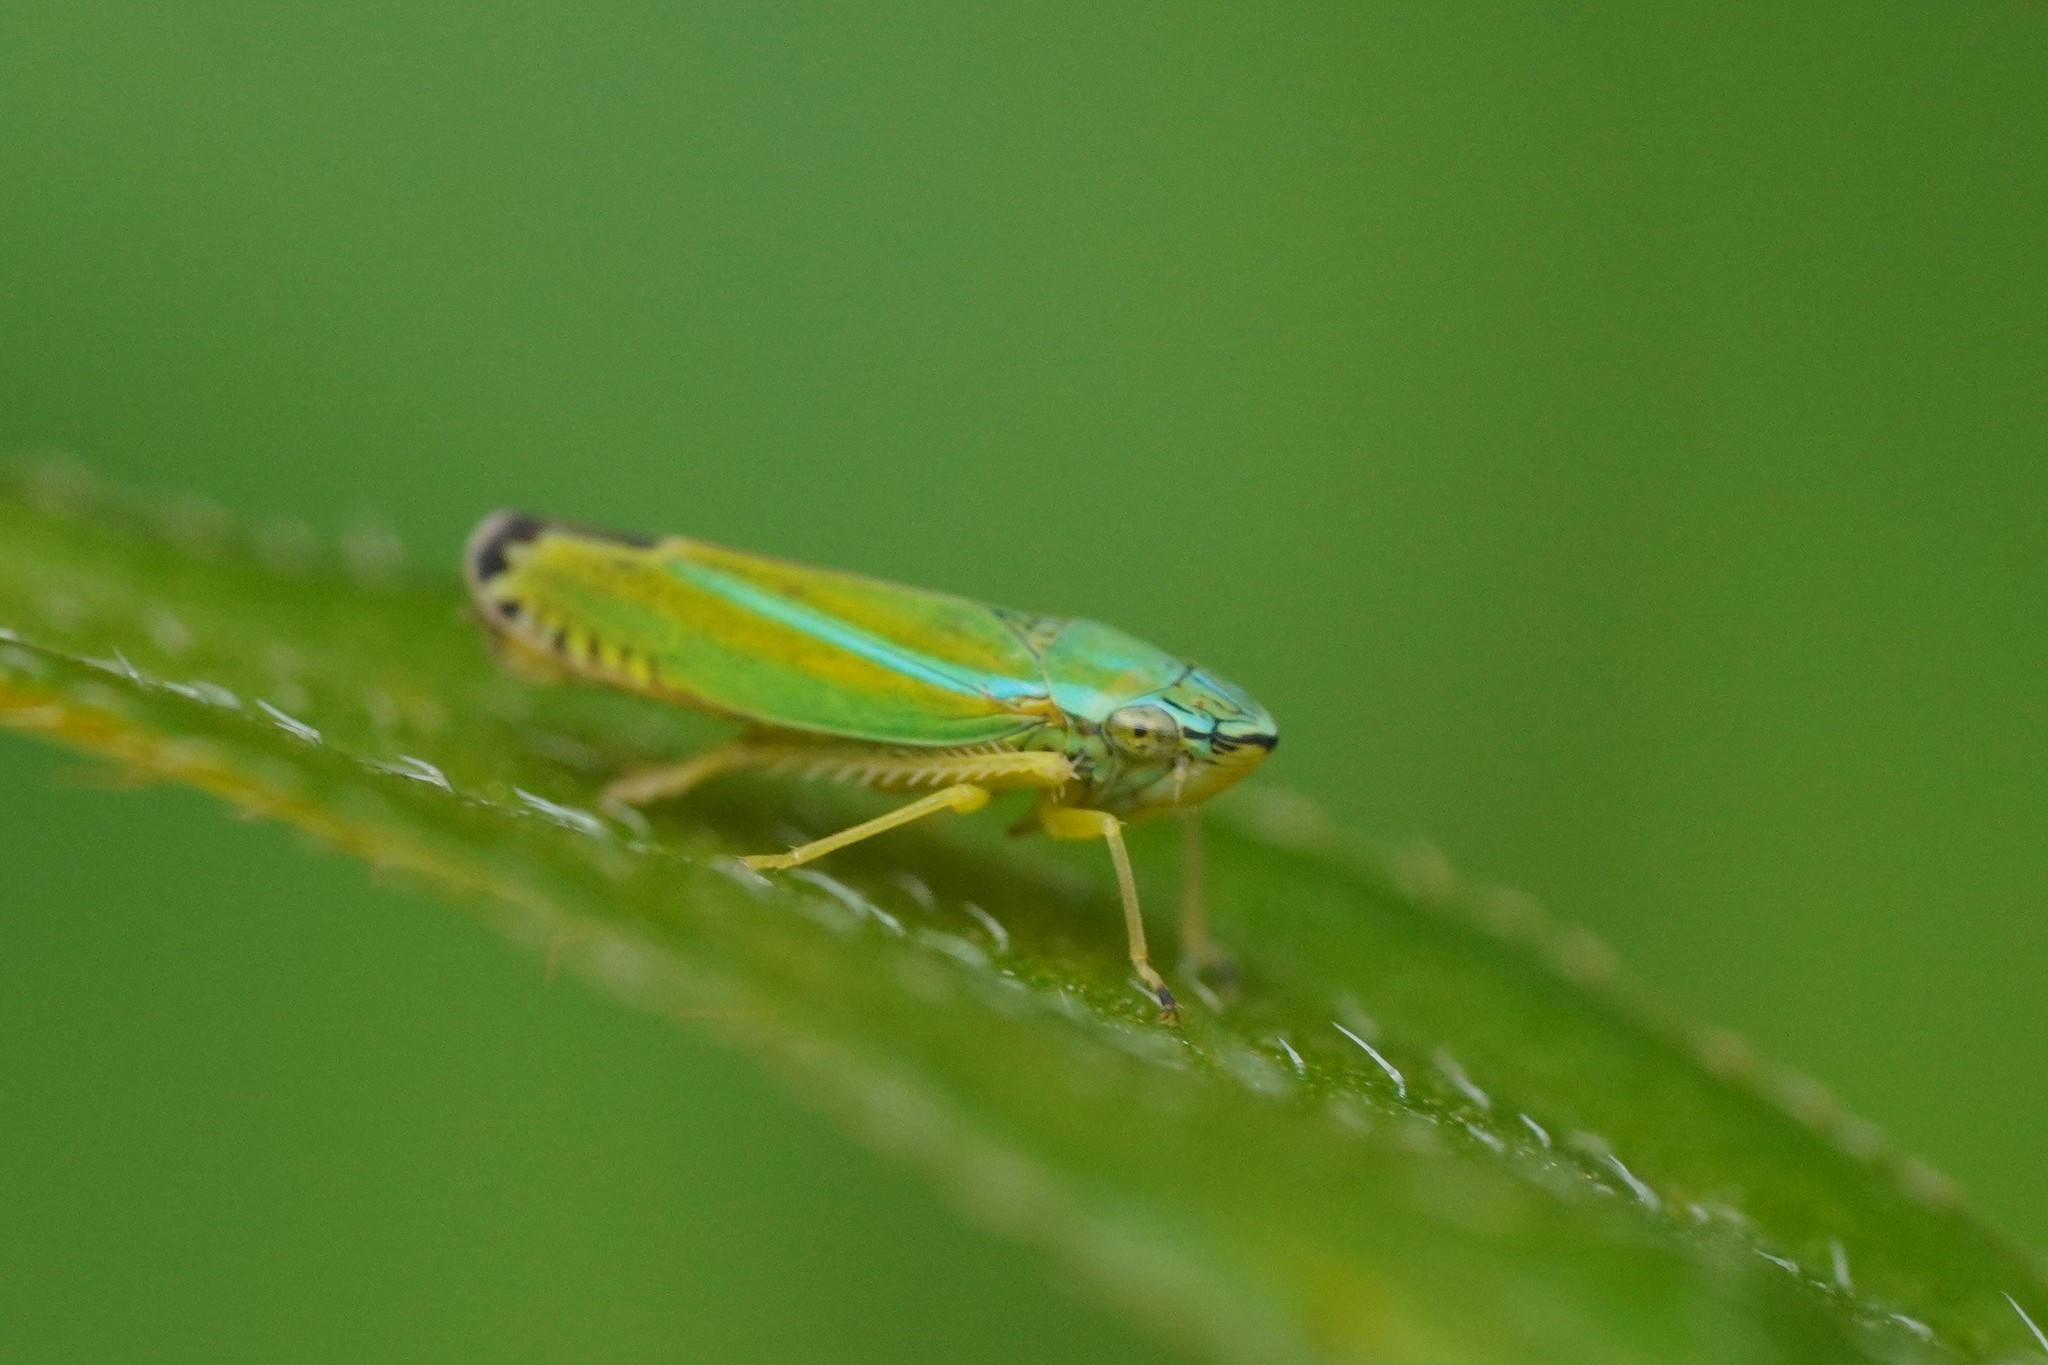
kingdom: Animalia
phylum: Arthropoda
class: Insecta
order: Hemiptera
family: Cicadellidae
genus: Graphocephala
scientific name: Graphocephala versuta
